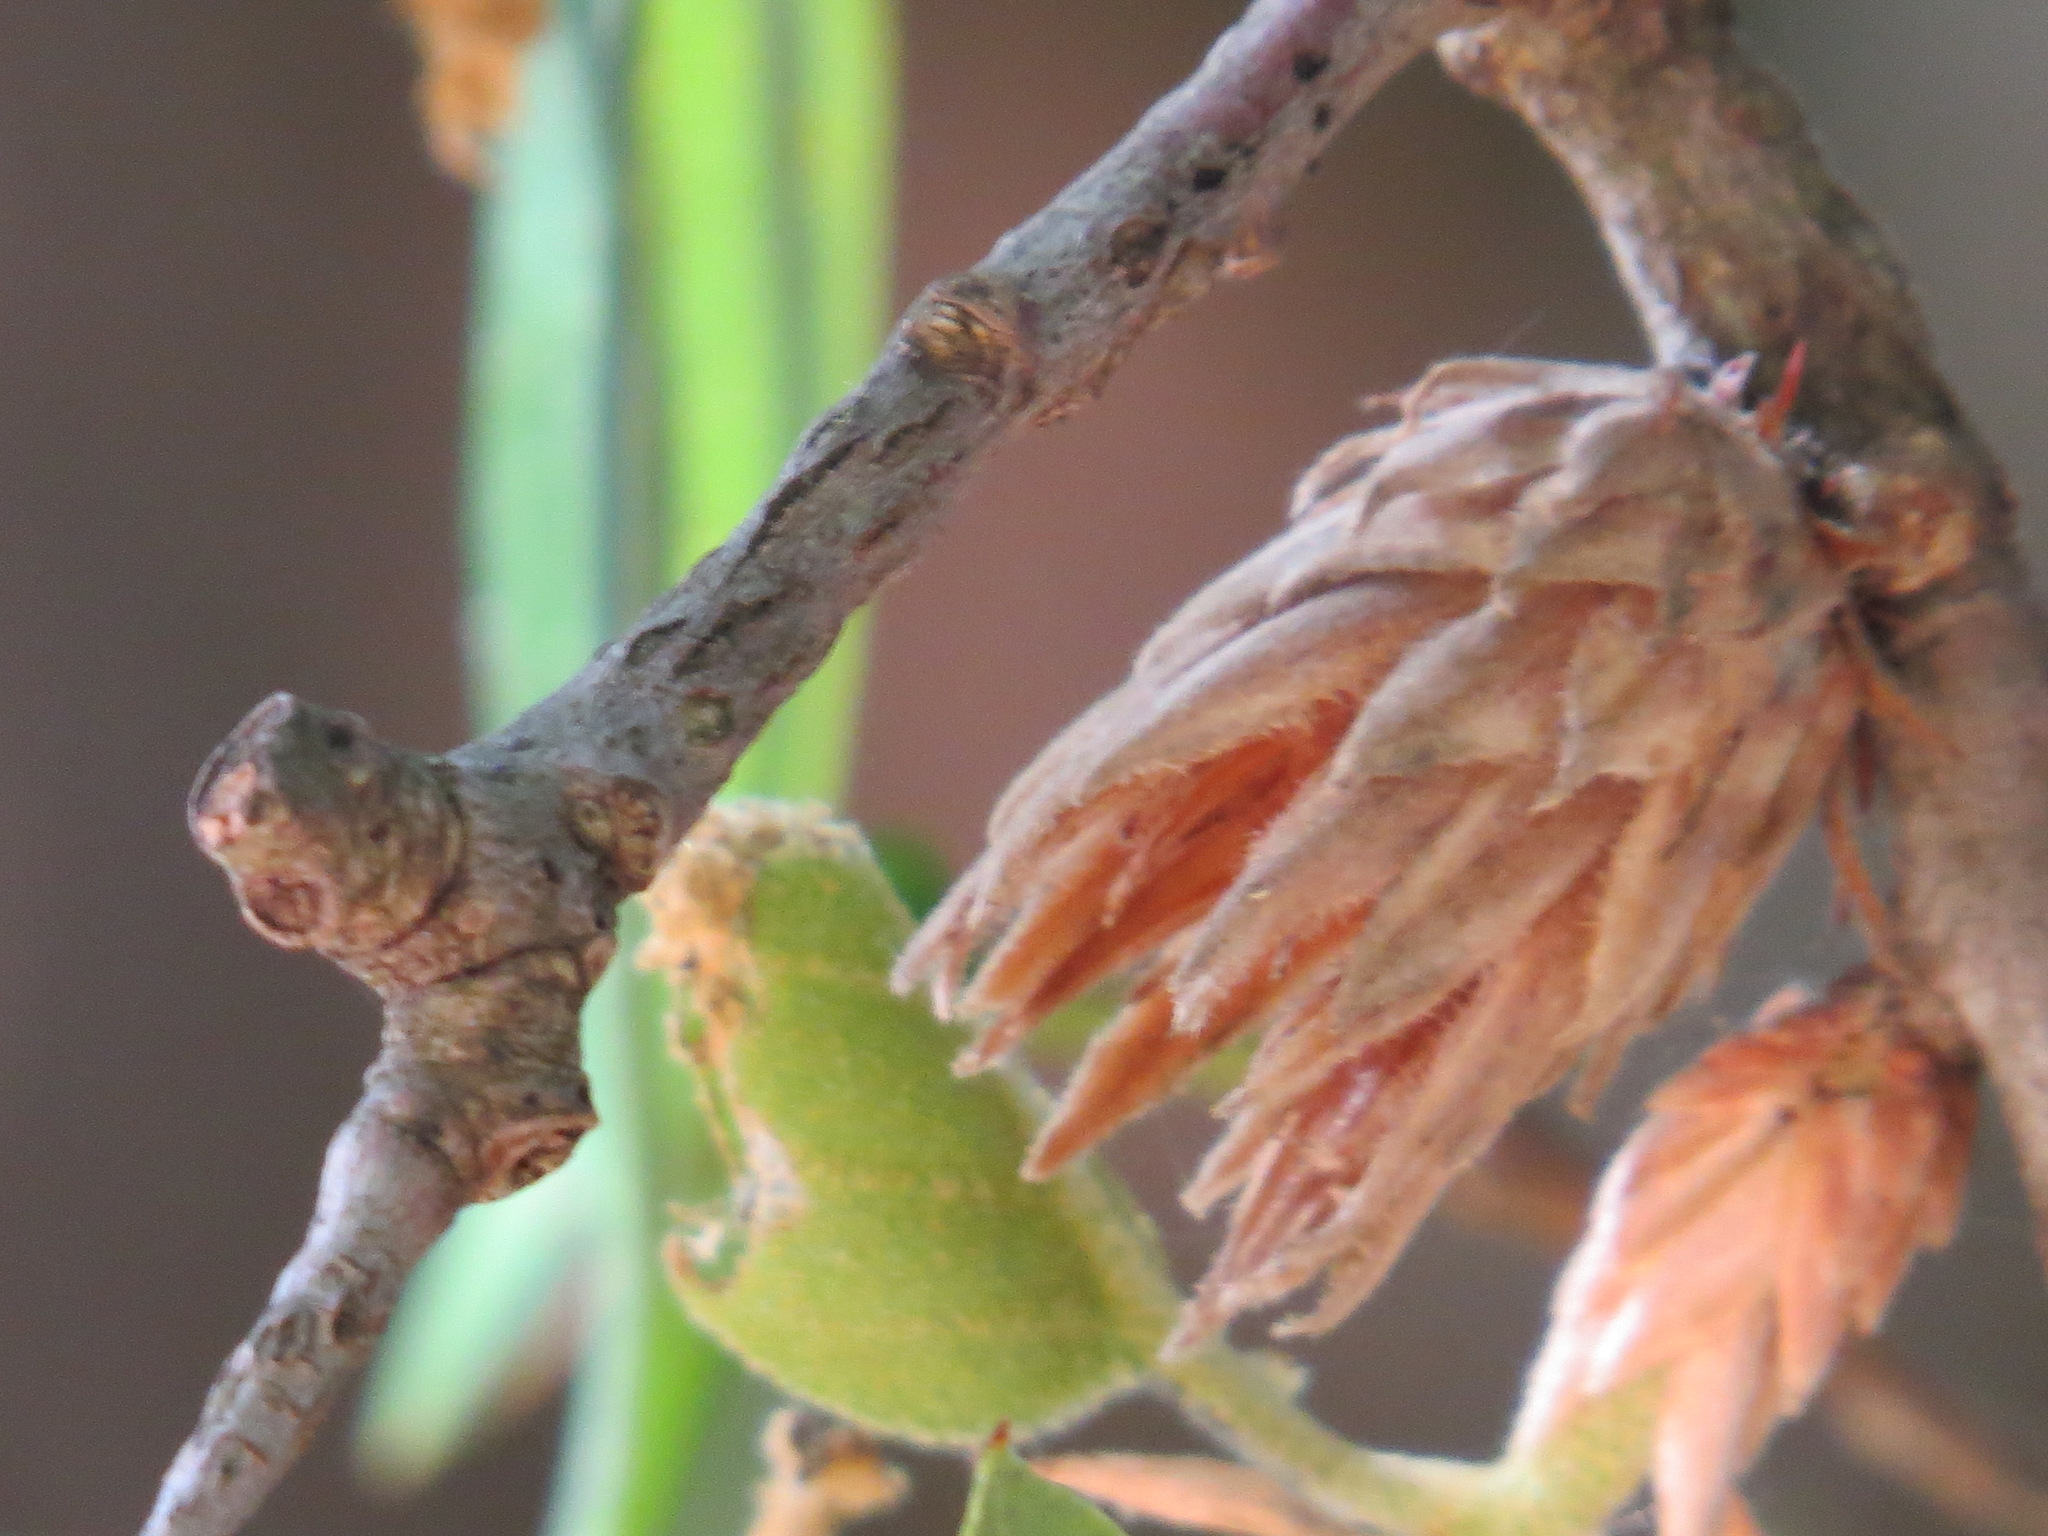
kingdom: Animalia
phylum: Arthropoda
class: Insecta
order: Hymenoptera
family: Cynipidae
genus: Andricus
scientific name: Andricus
